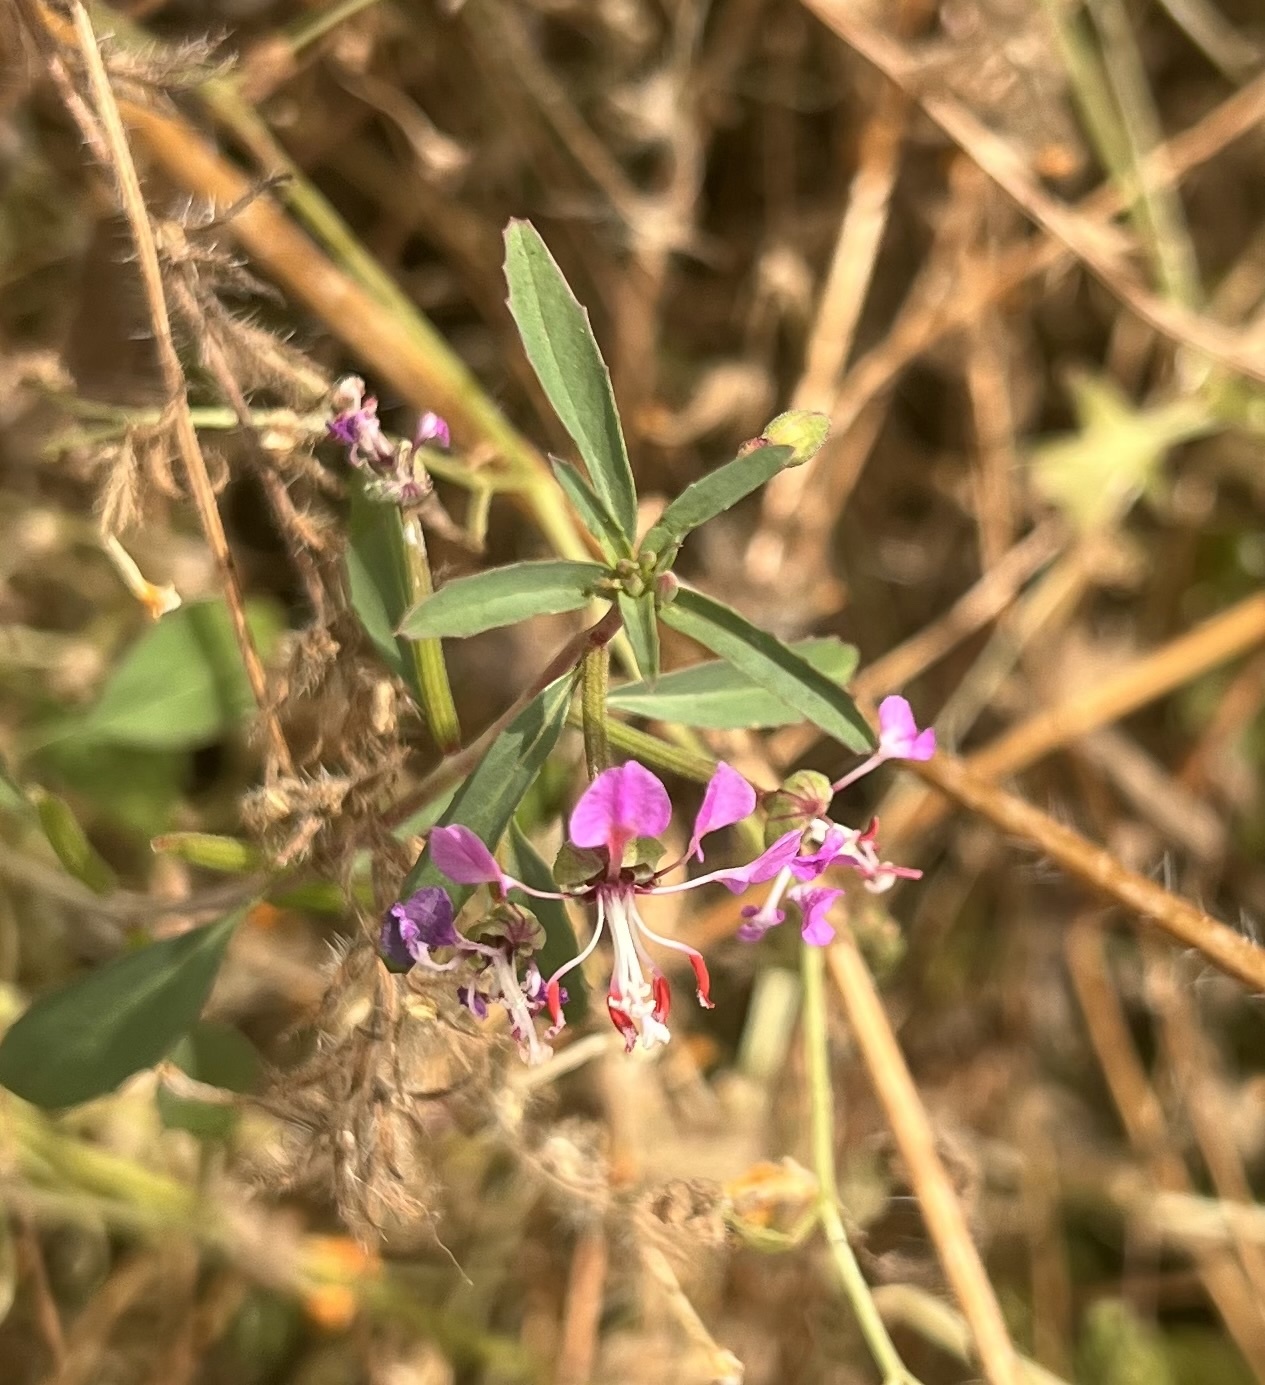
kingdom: Plantae
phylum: Tracheophyta
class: Magnoliopsida
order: Myrtales
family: Onagraceae
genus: Clarkia
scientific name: Clarkia exilis
